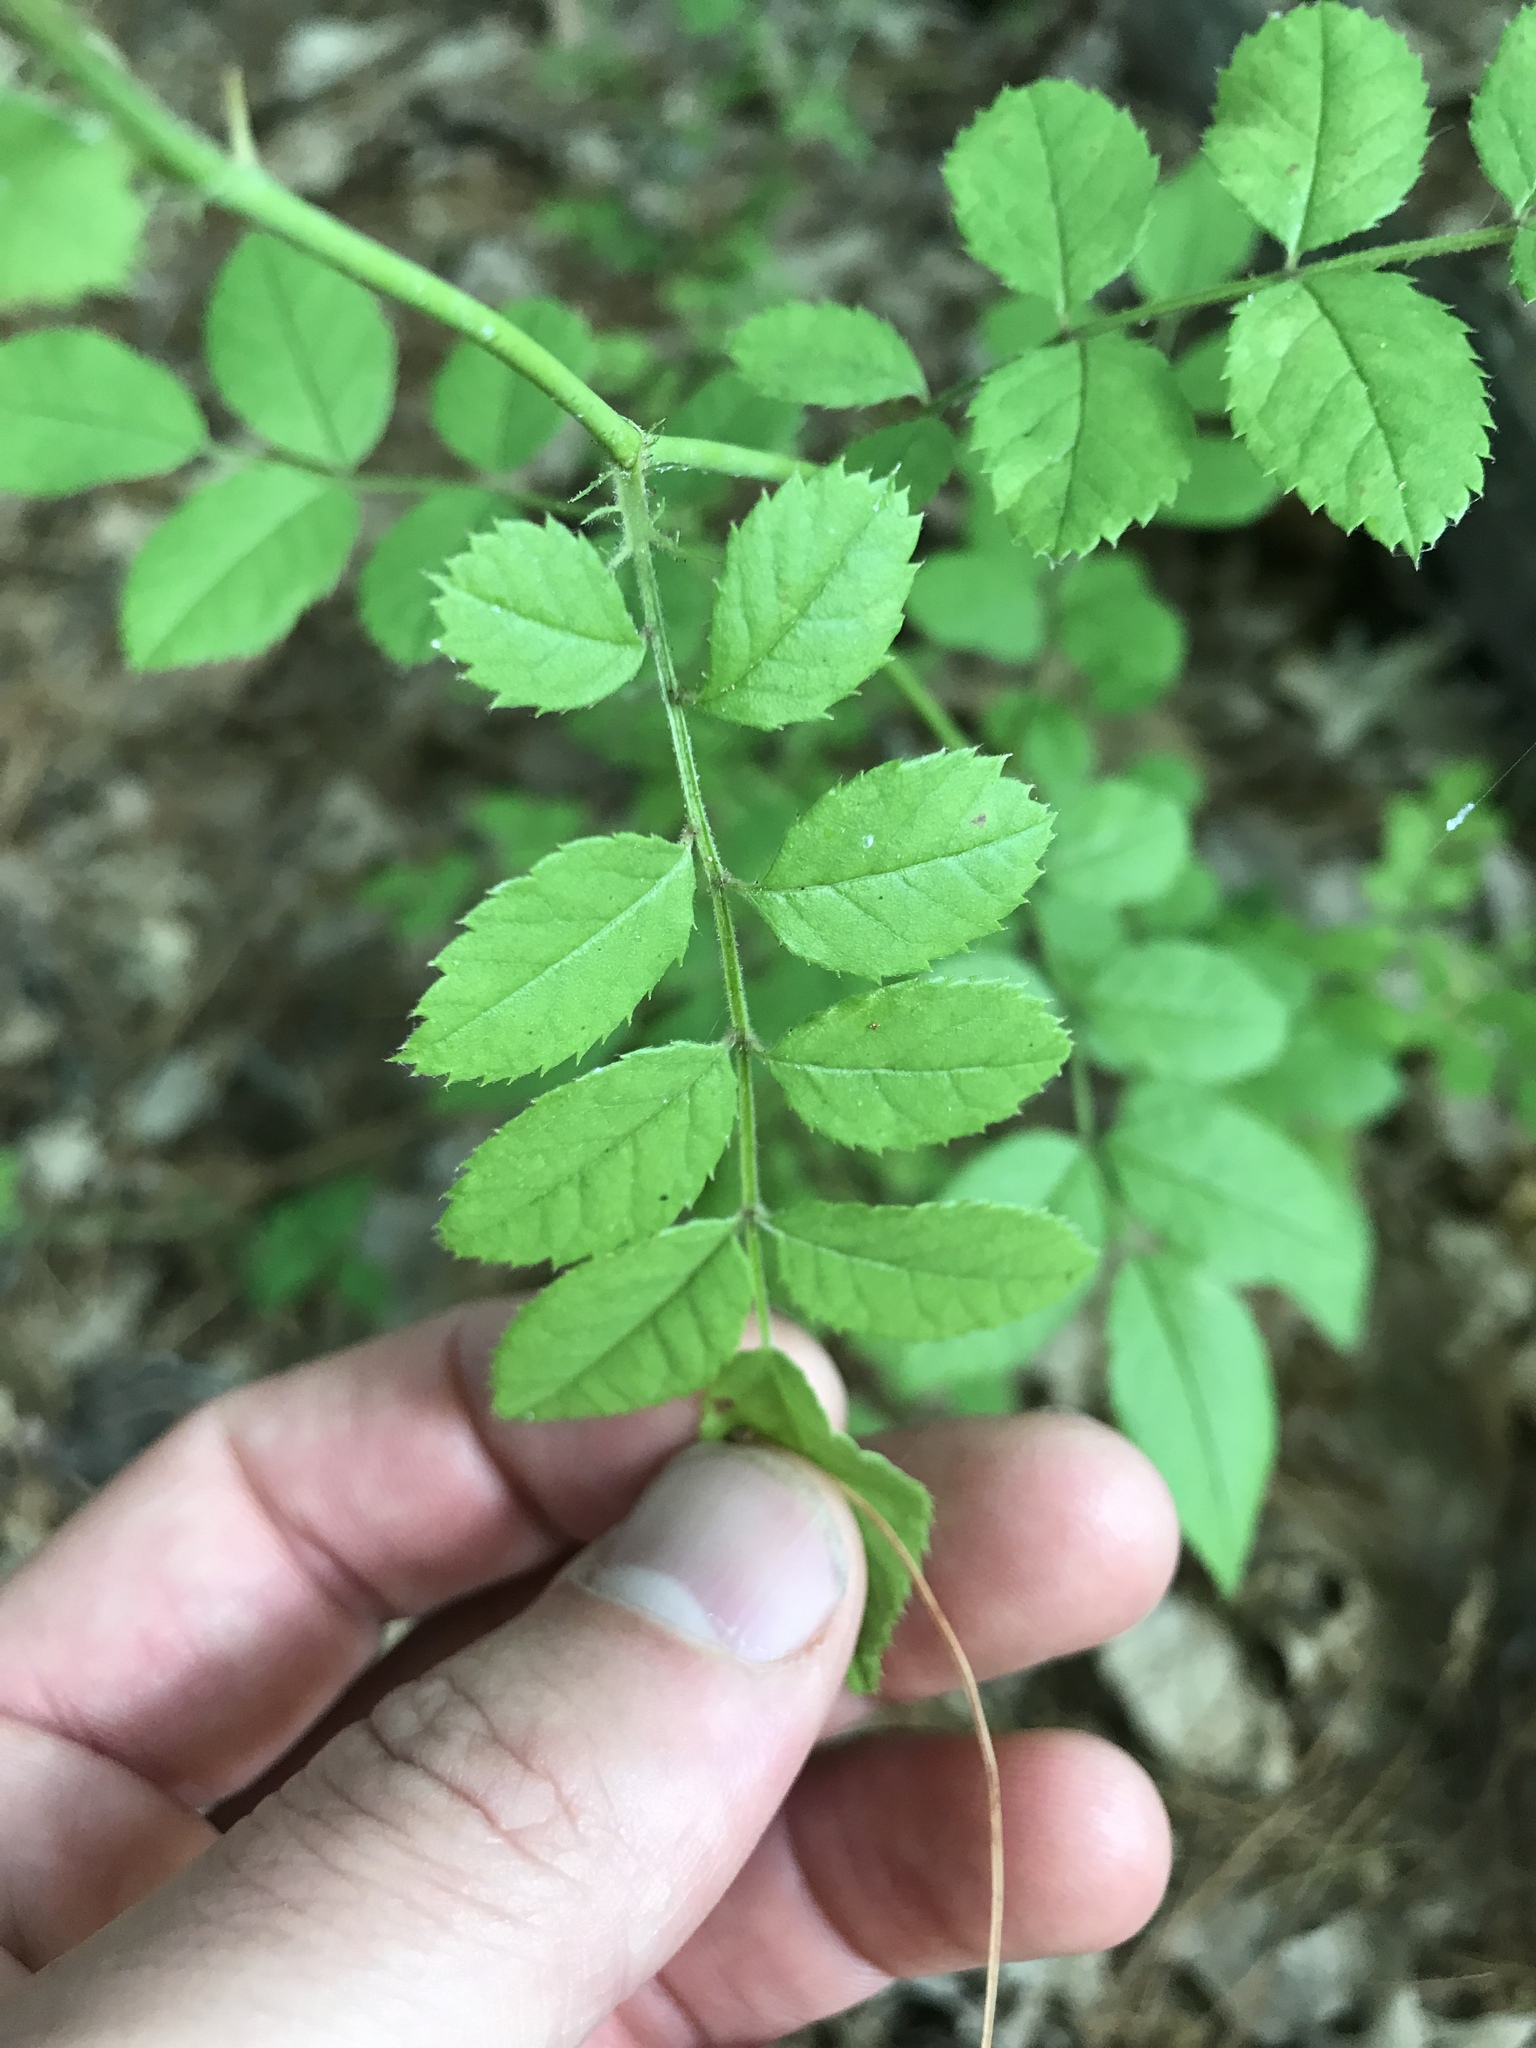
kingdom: Plantae
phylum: Tracheophyta
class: Magnoliopsida
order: Rosales
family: Rosaceae
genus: Rosa
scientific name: Rosa multiflora
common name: Multiflora rose
